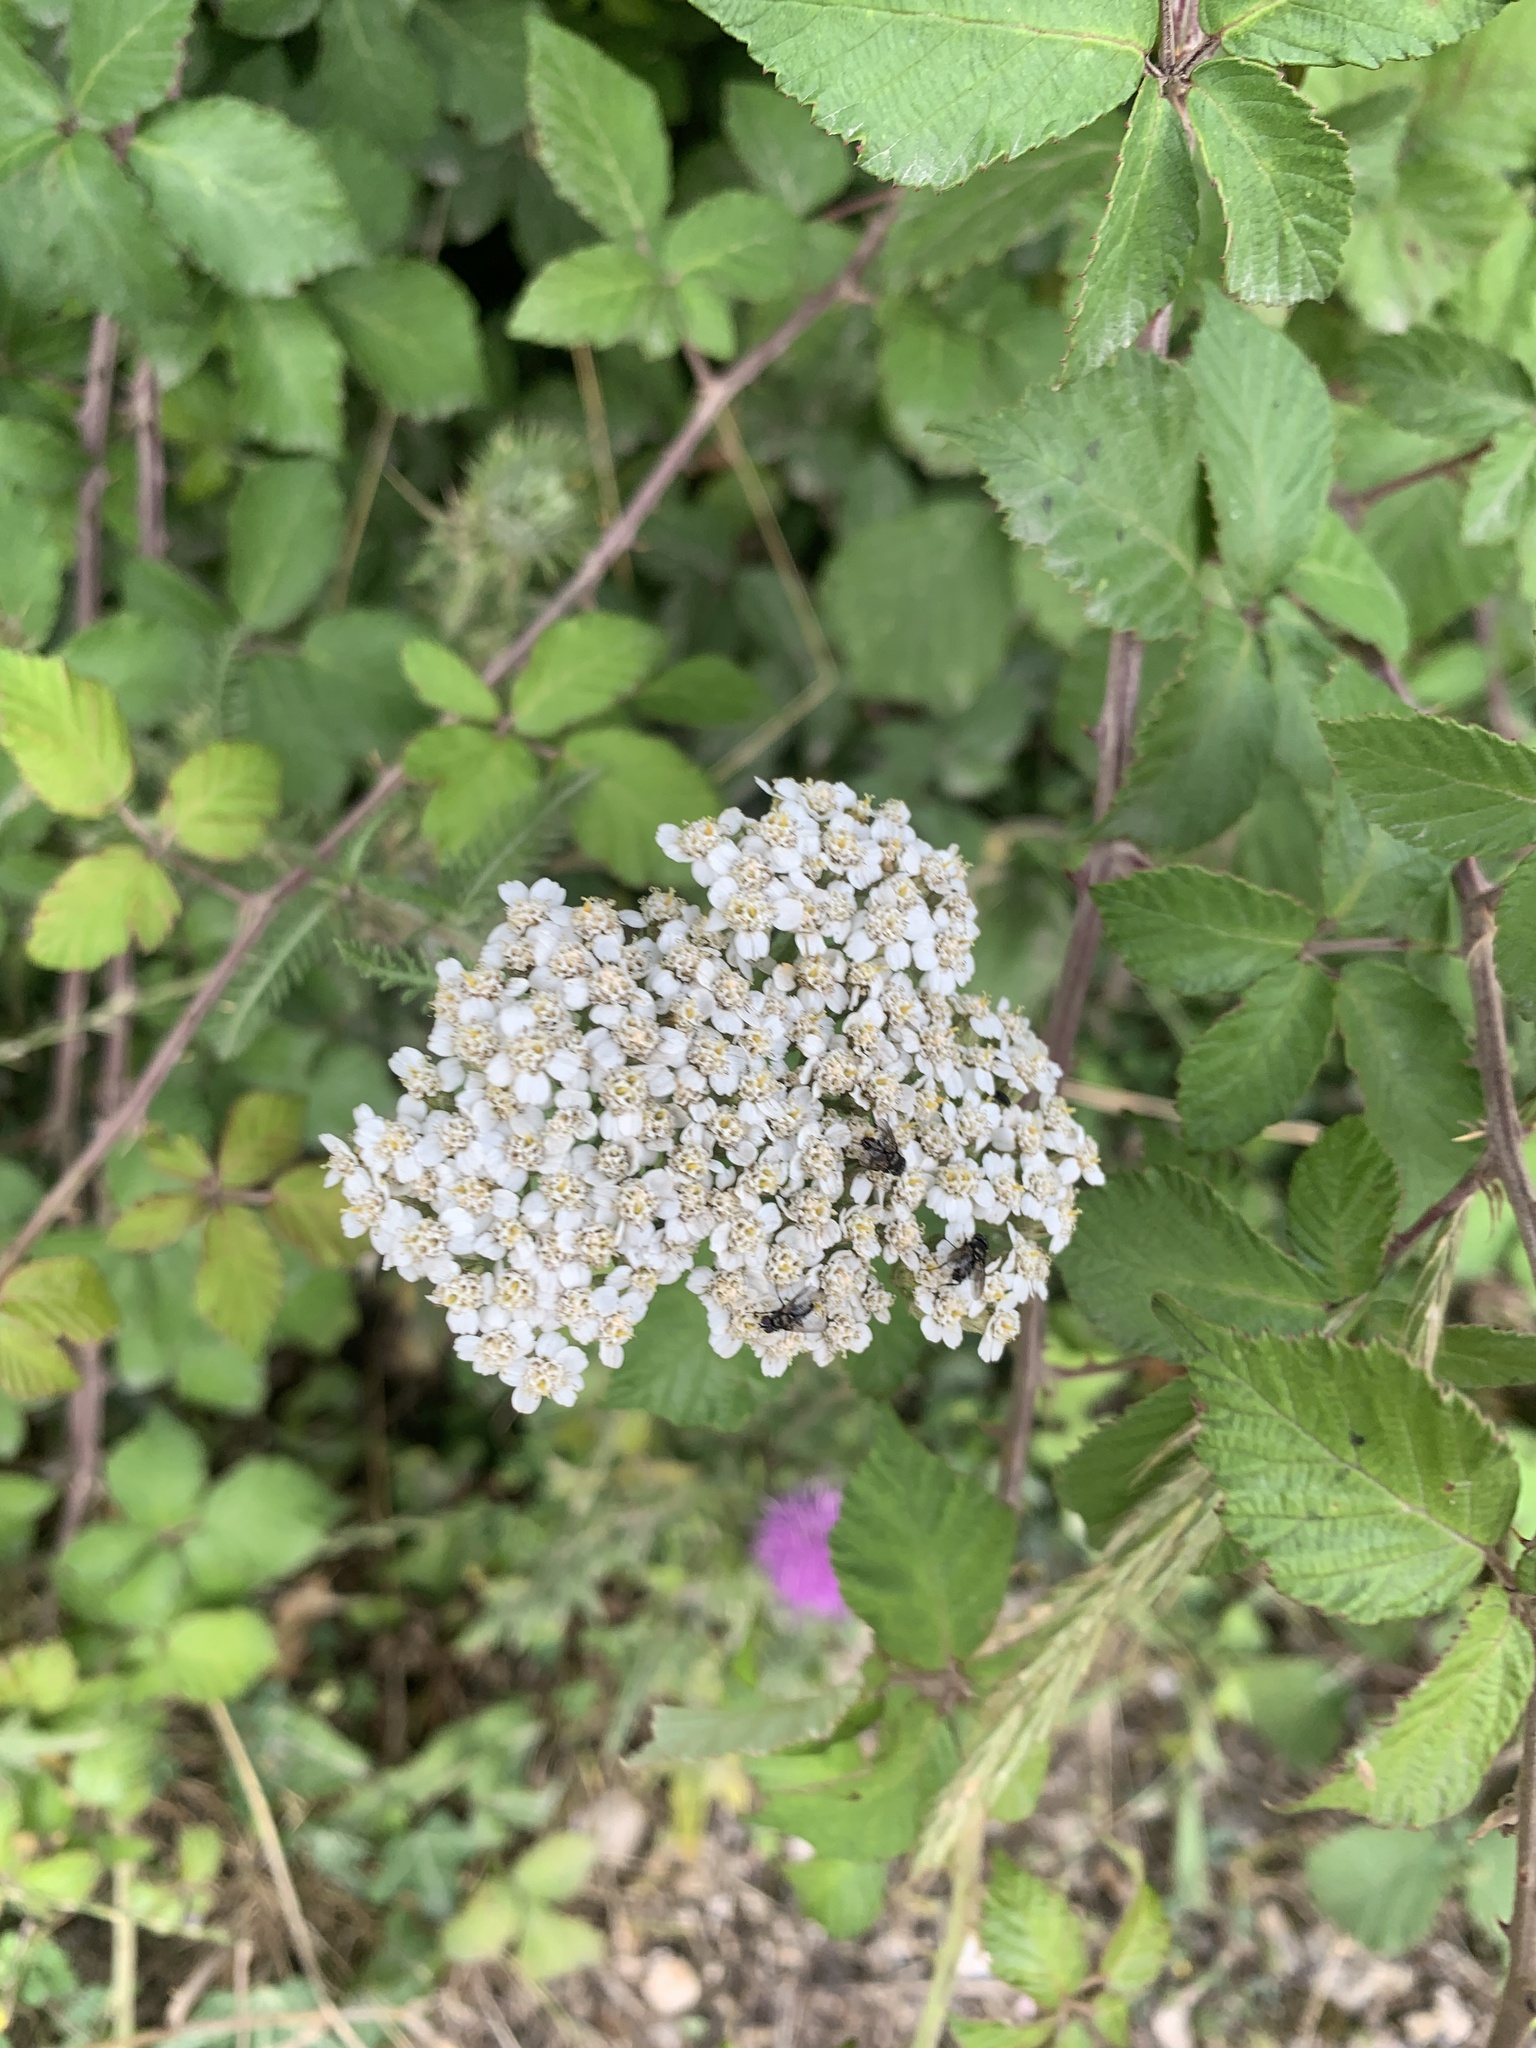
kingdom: Plantae
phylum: Tracheophyta
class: Magnoliopsida
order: Asterales
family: Asteraceae
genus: Achillea
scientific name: Achillea millefolium
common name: Yarrow
